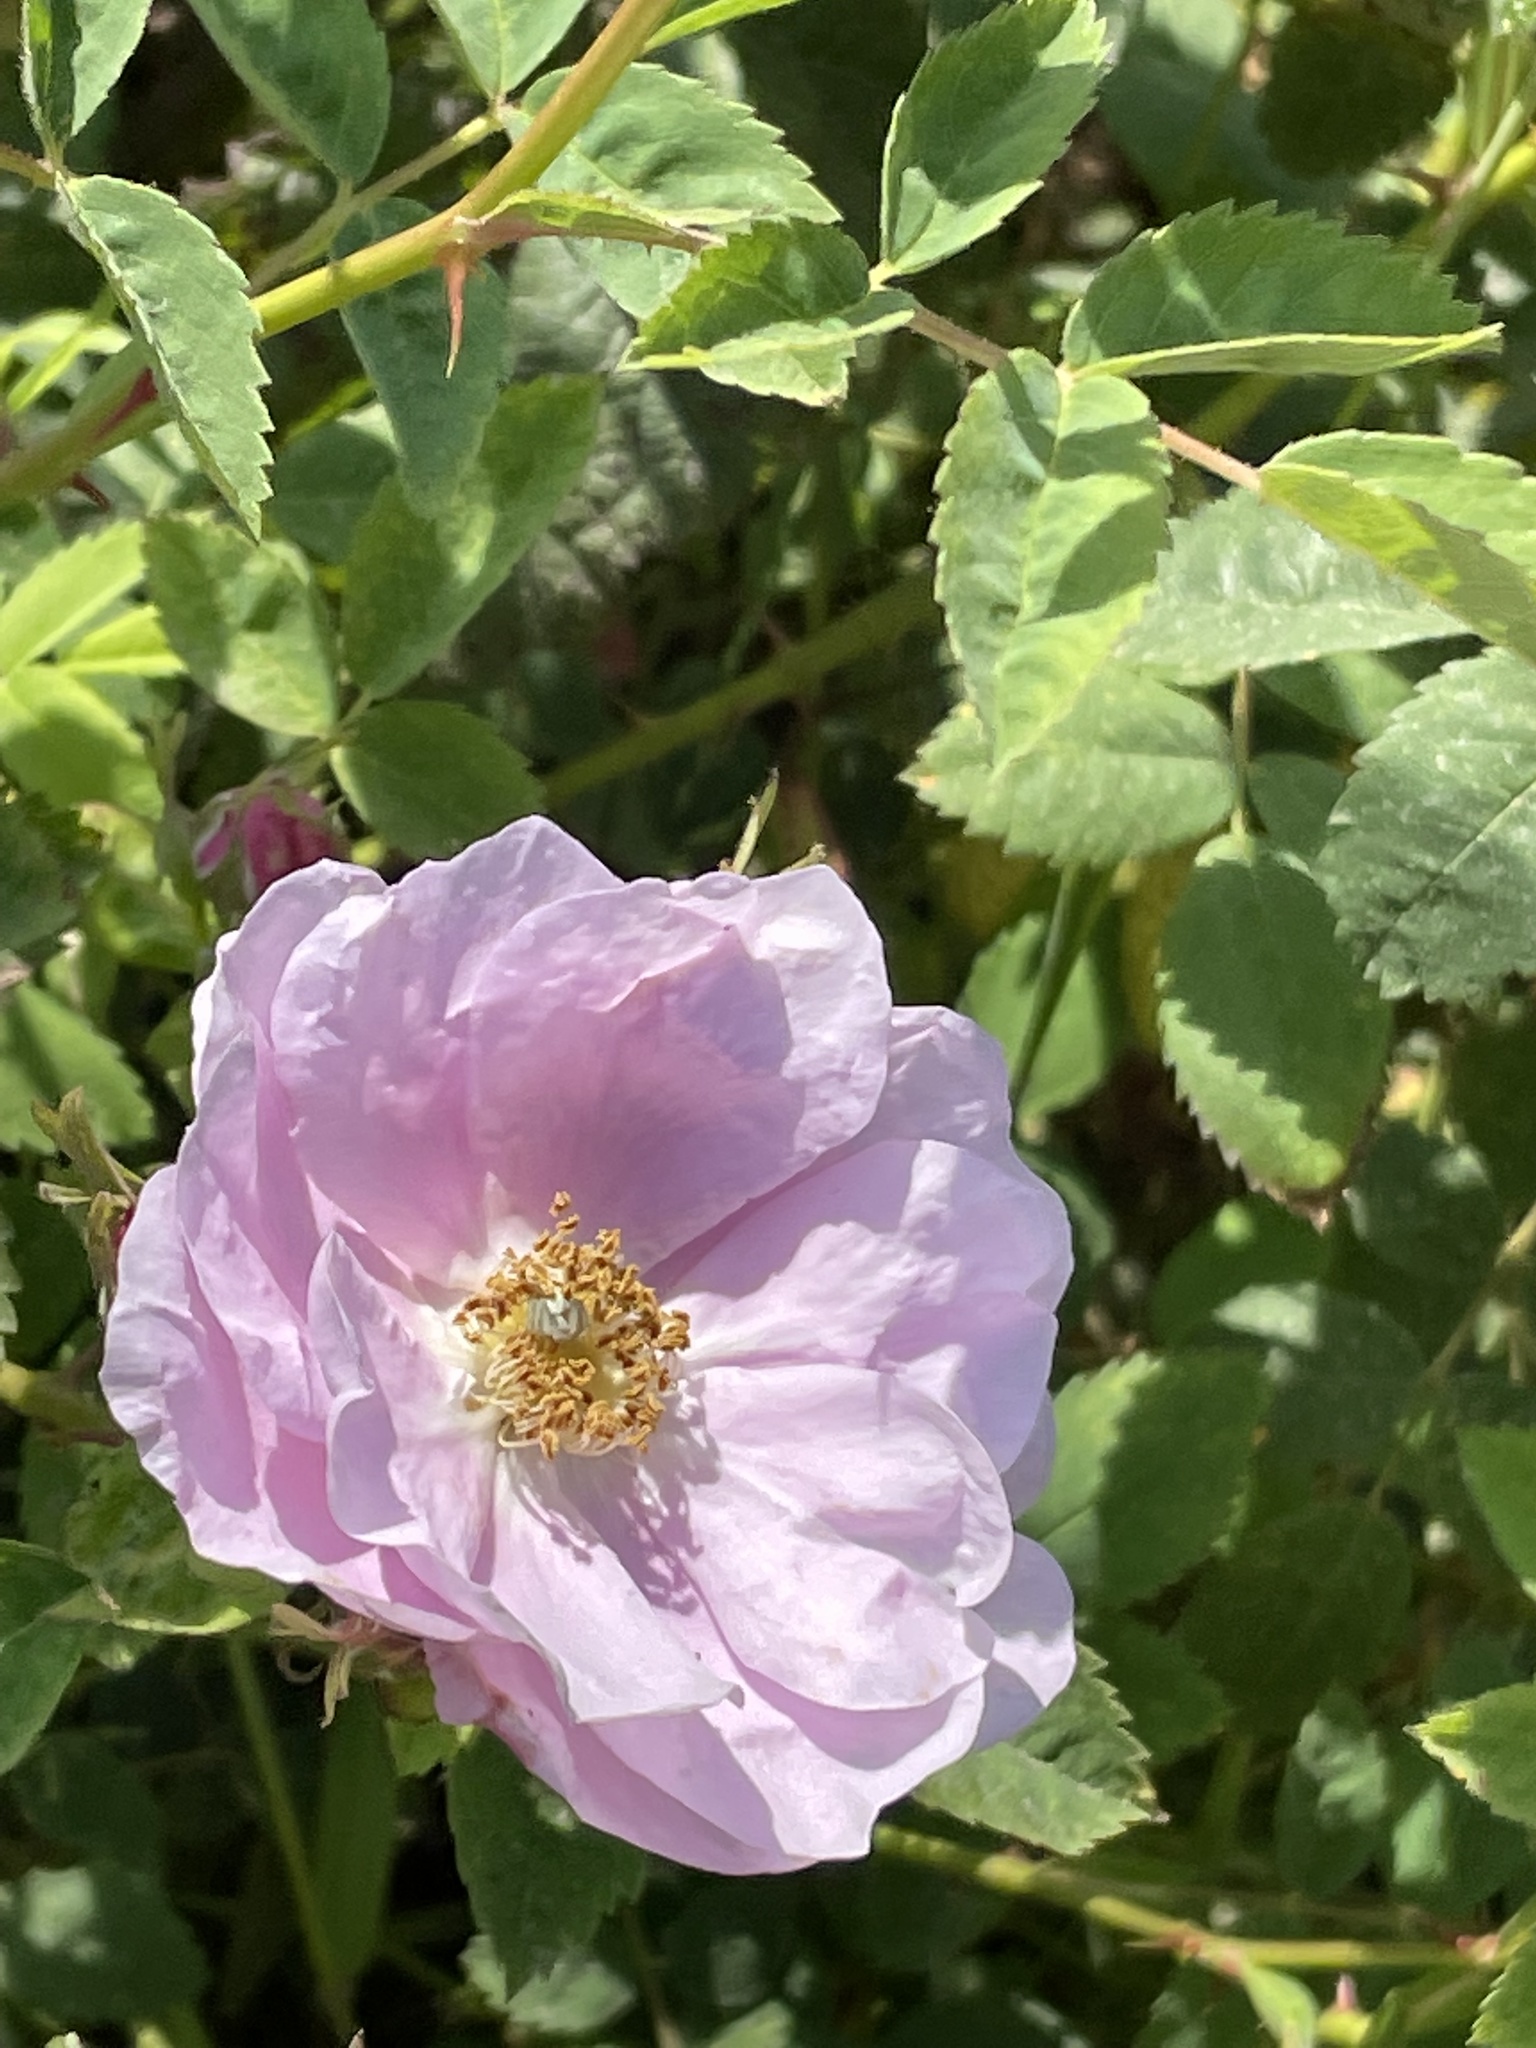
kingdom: Plantae
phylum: Tracheophyta
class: Magnoliopsida
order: Rosales
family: Rosaceae
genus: Rosa
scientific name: Rosa californica
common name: California rose
